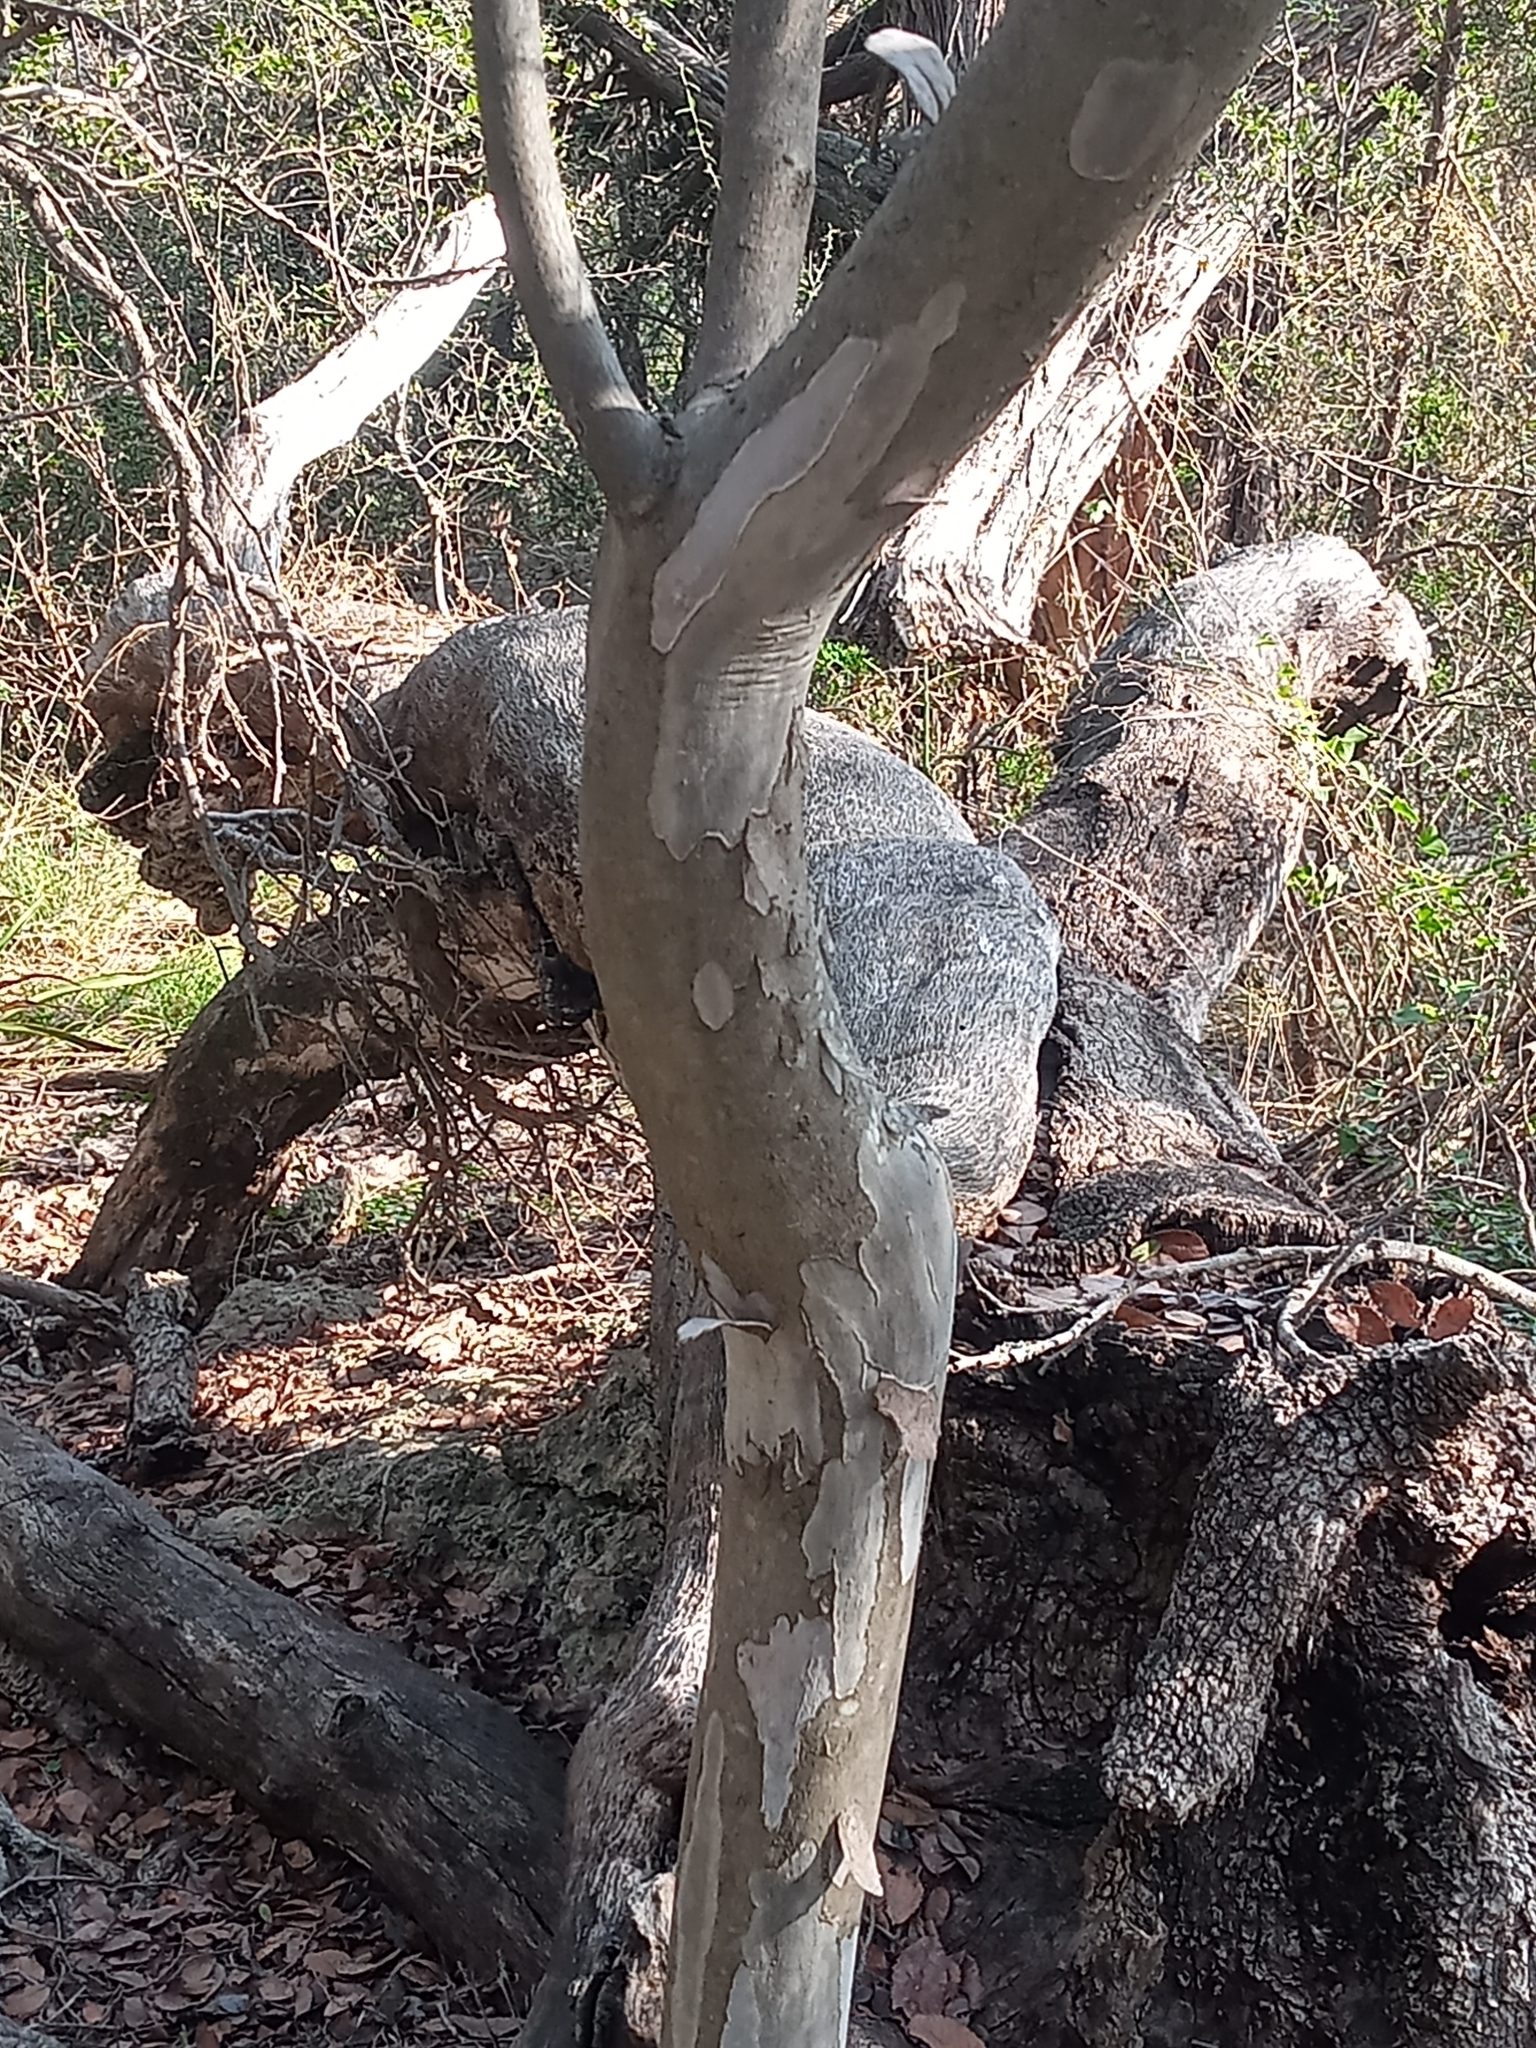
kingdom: Plantae
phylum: Tracheophyta
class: Magnoliopsida
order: Ericales
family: Ebenaceae
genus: Diospyros
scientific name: Diospyros texana
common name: Texas persimmon
